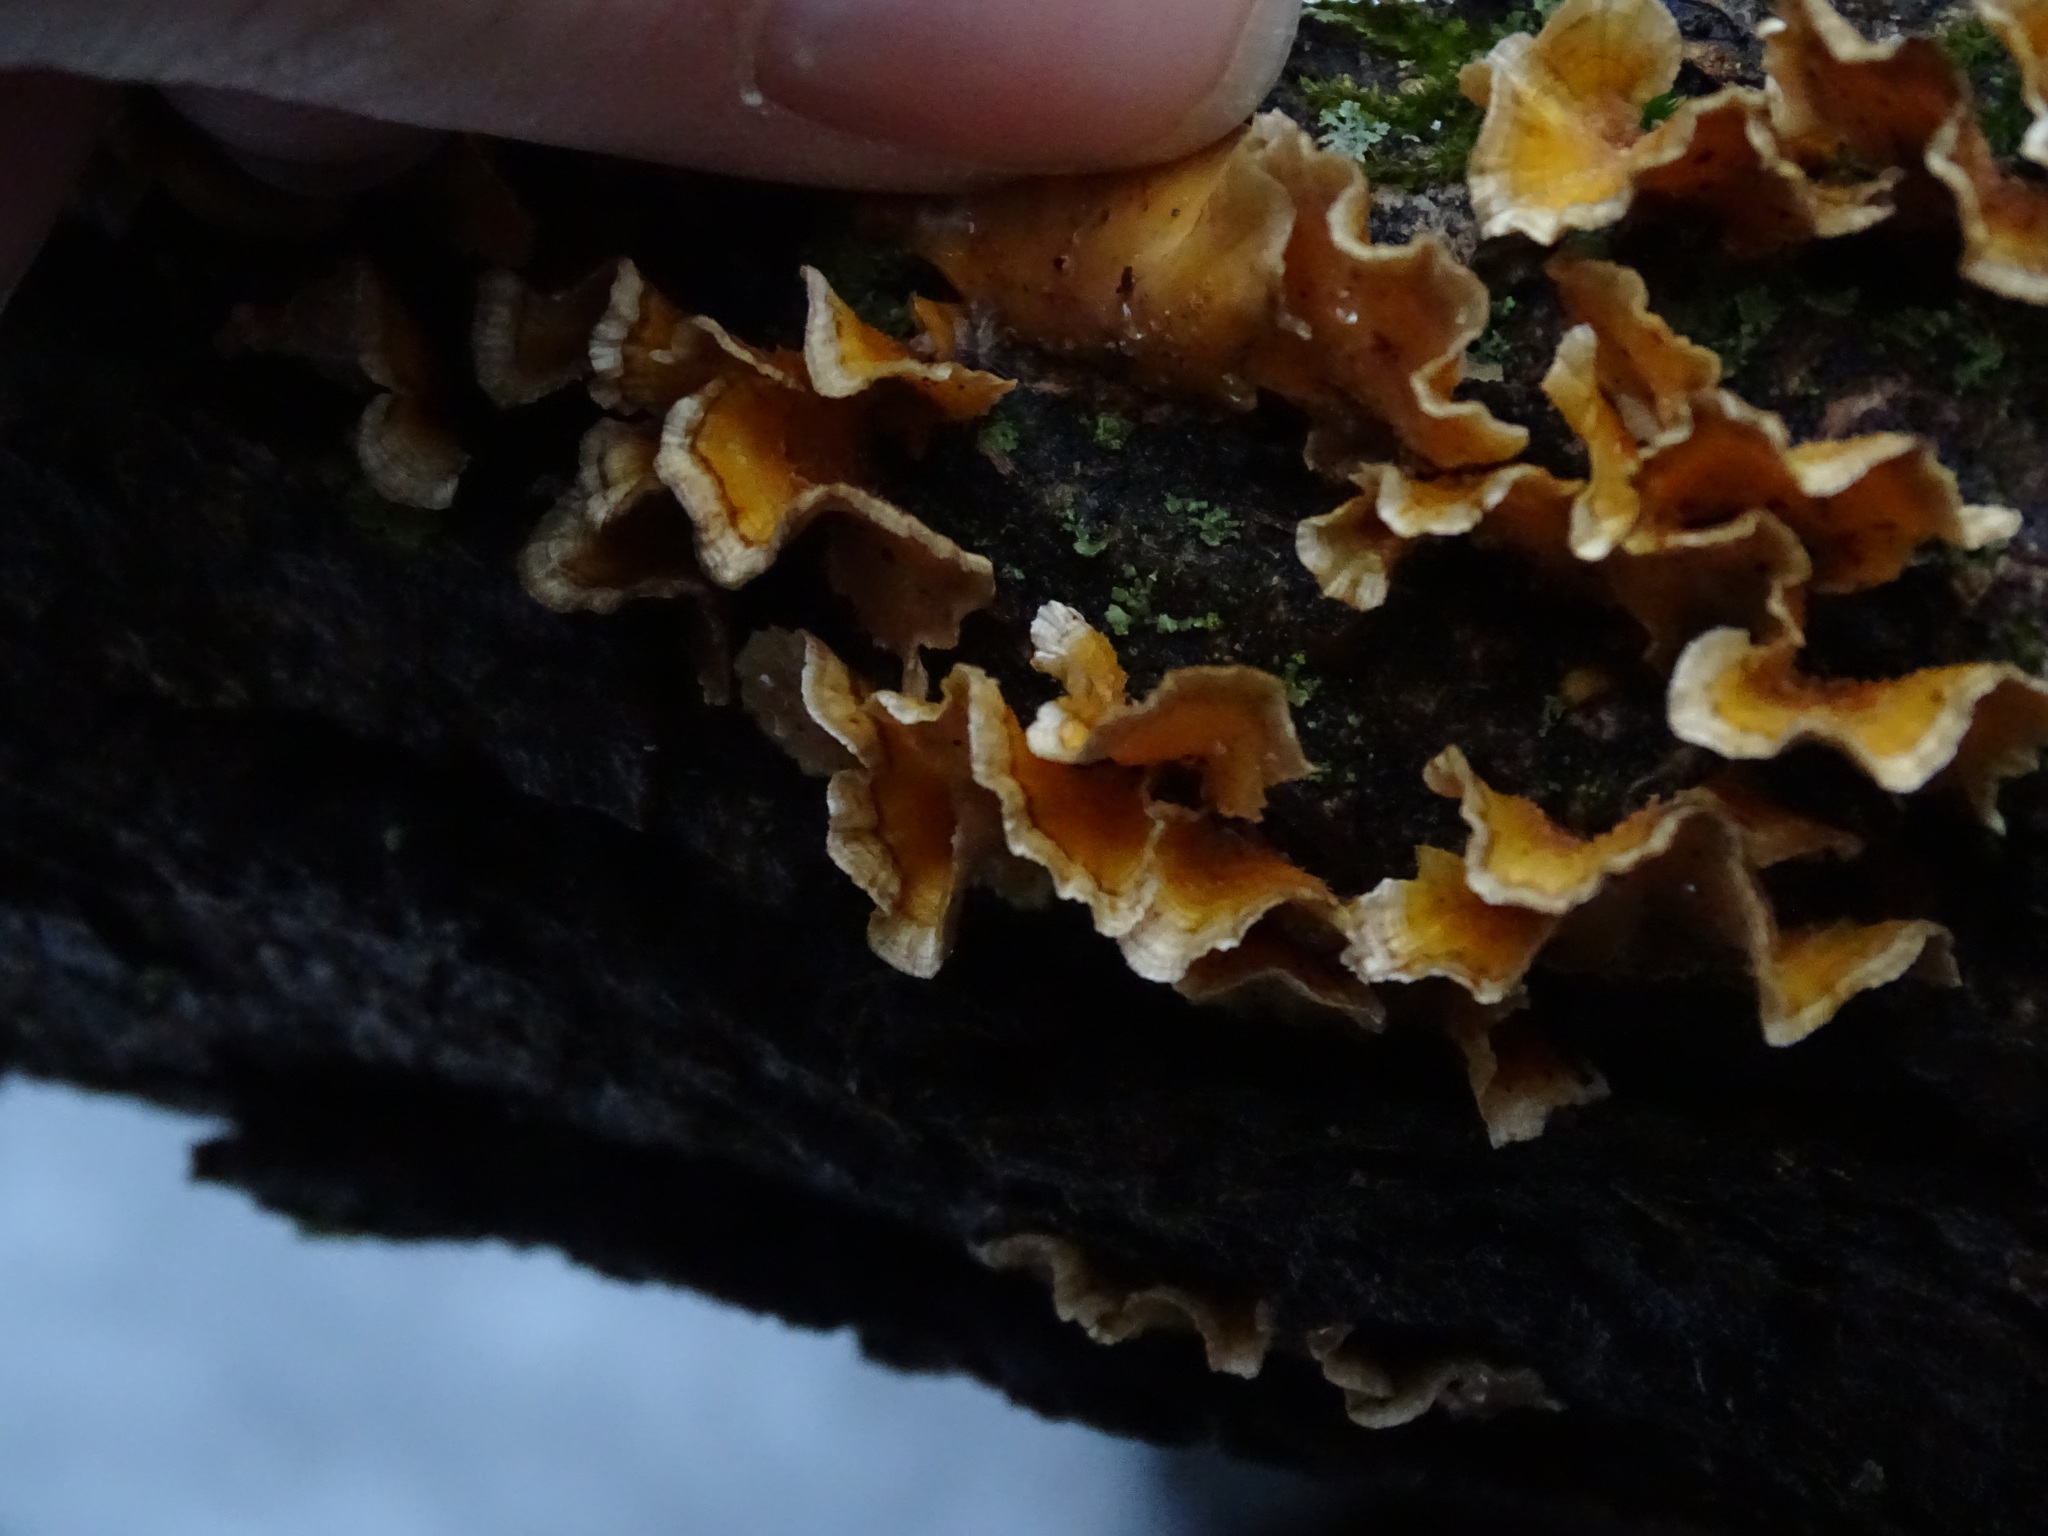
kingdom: Fungi
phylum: Basidiomycota
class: Agaricomycetes
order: Russulales
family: Stereaceae
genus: Stereum
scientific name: Stereum complicatum
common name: Crowded parchment
